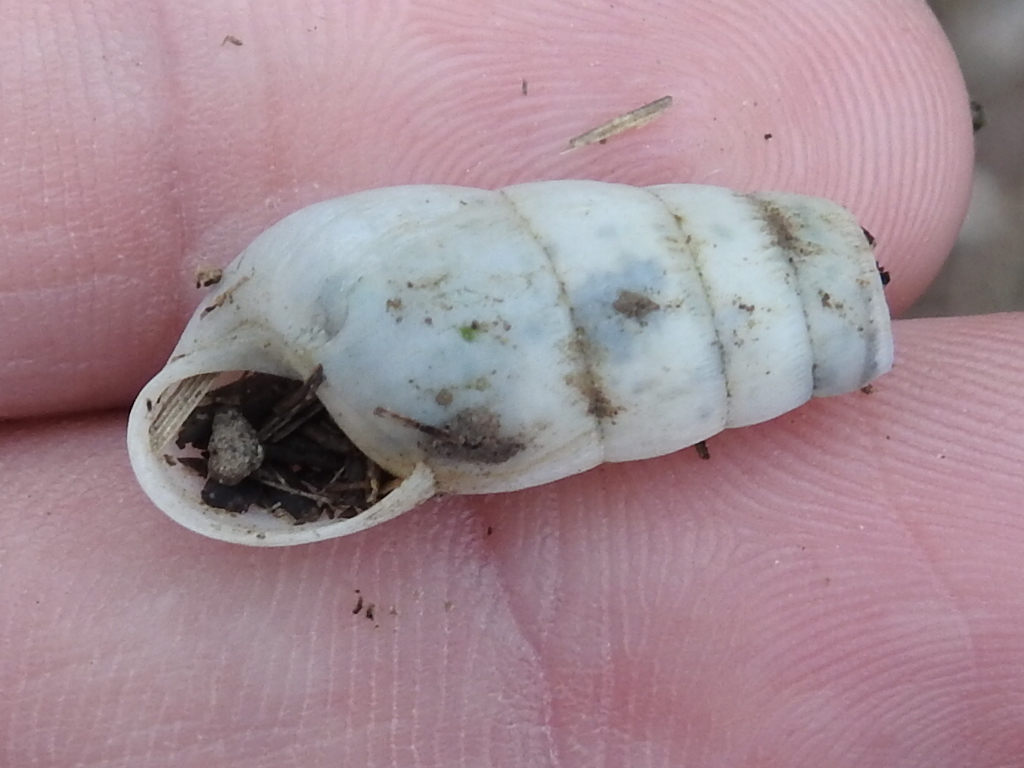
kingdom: Animalia
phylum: Mollusca
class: Gastropoda
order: Stylommatophora
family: Achatinidae
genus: Rumina
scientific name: Rumina decollata
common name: Decollate snail
